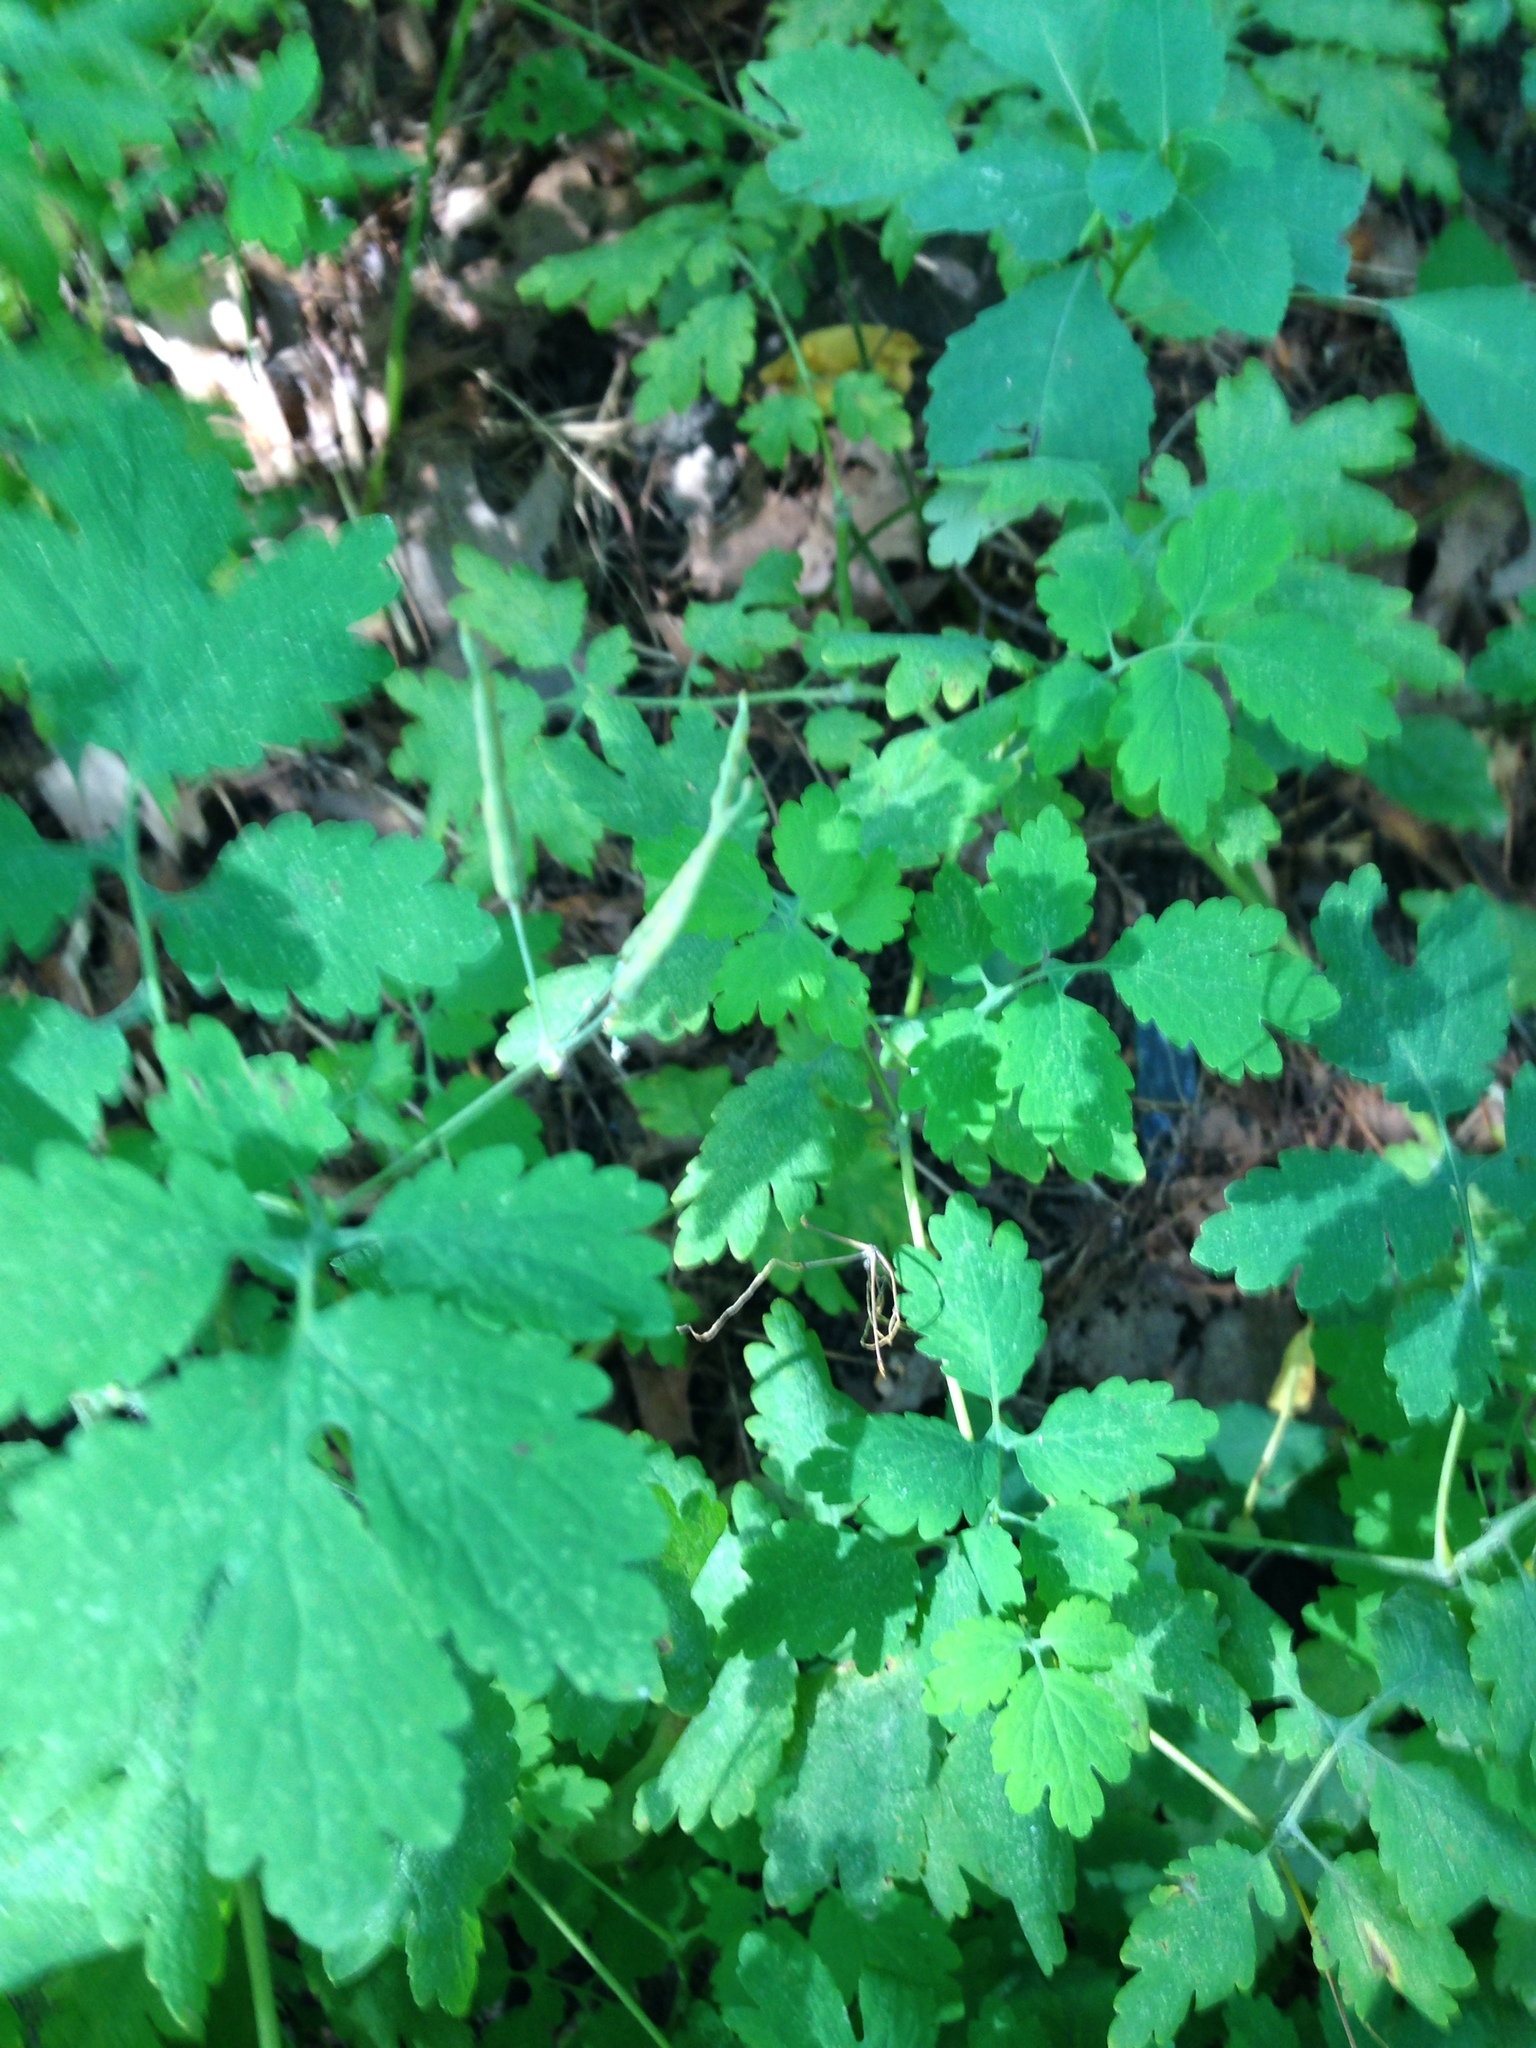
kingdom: Plantae
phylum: Tracheophyta
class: Magnoliopsida
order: Ranunculales
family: Papaveraceae
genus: Chelidonium
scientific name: Chelidonium majus
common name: Greater celandine
